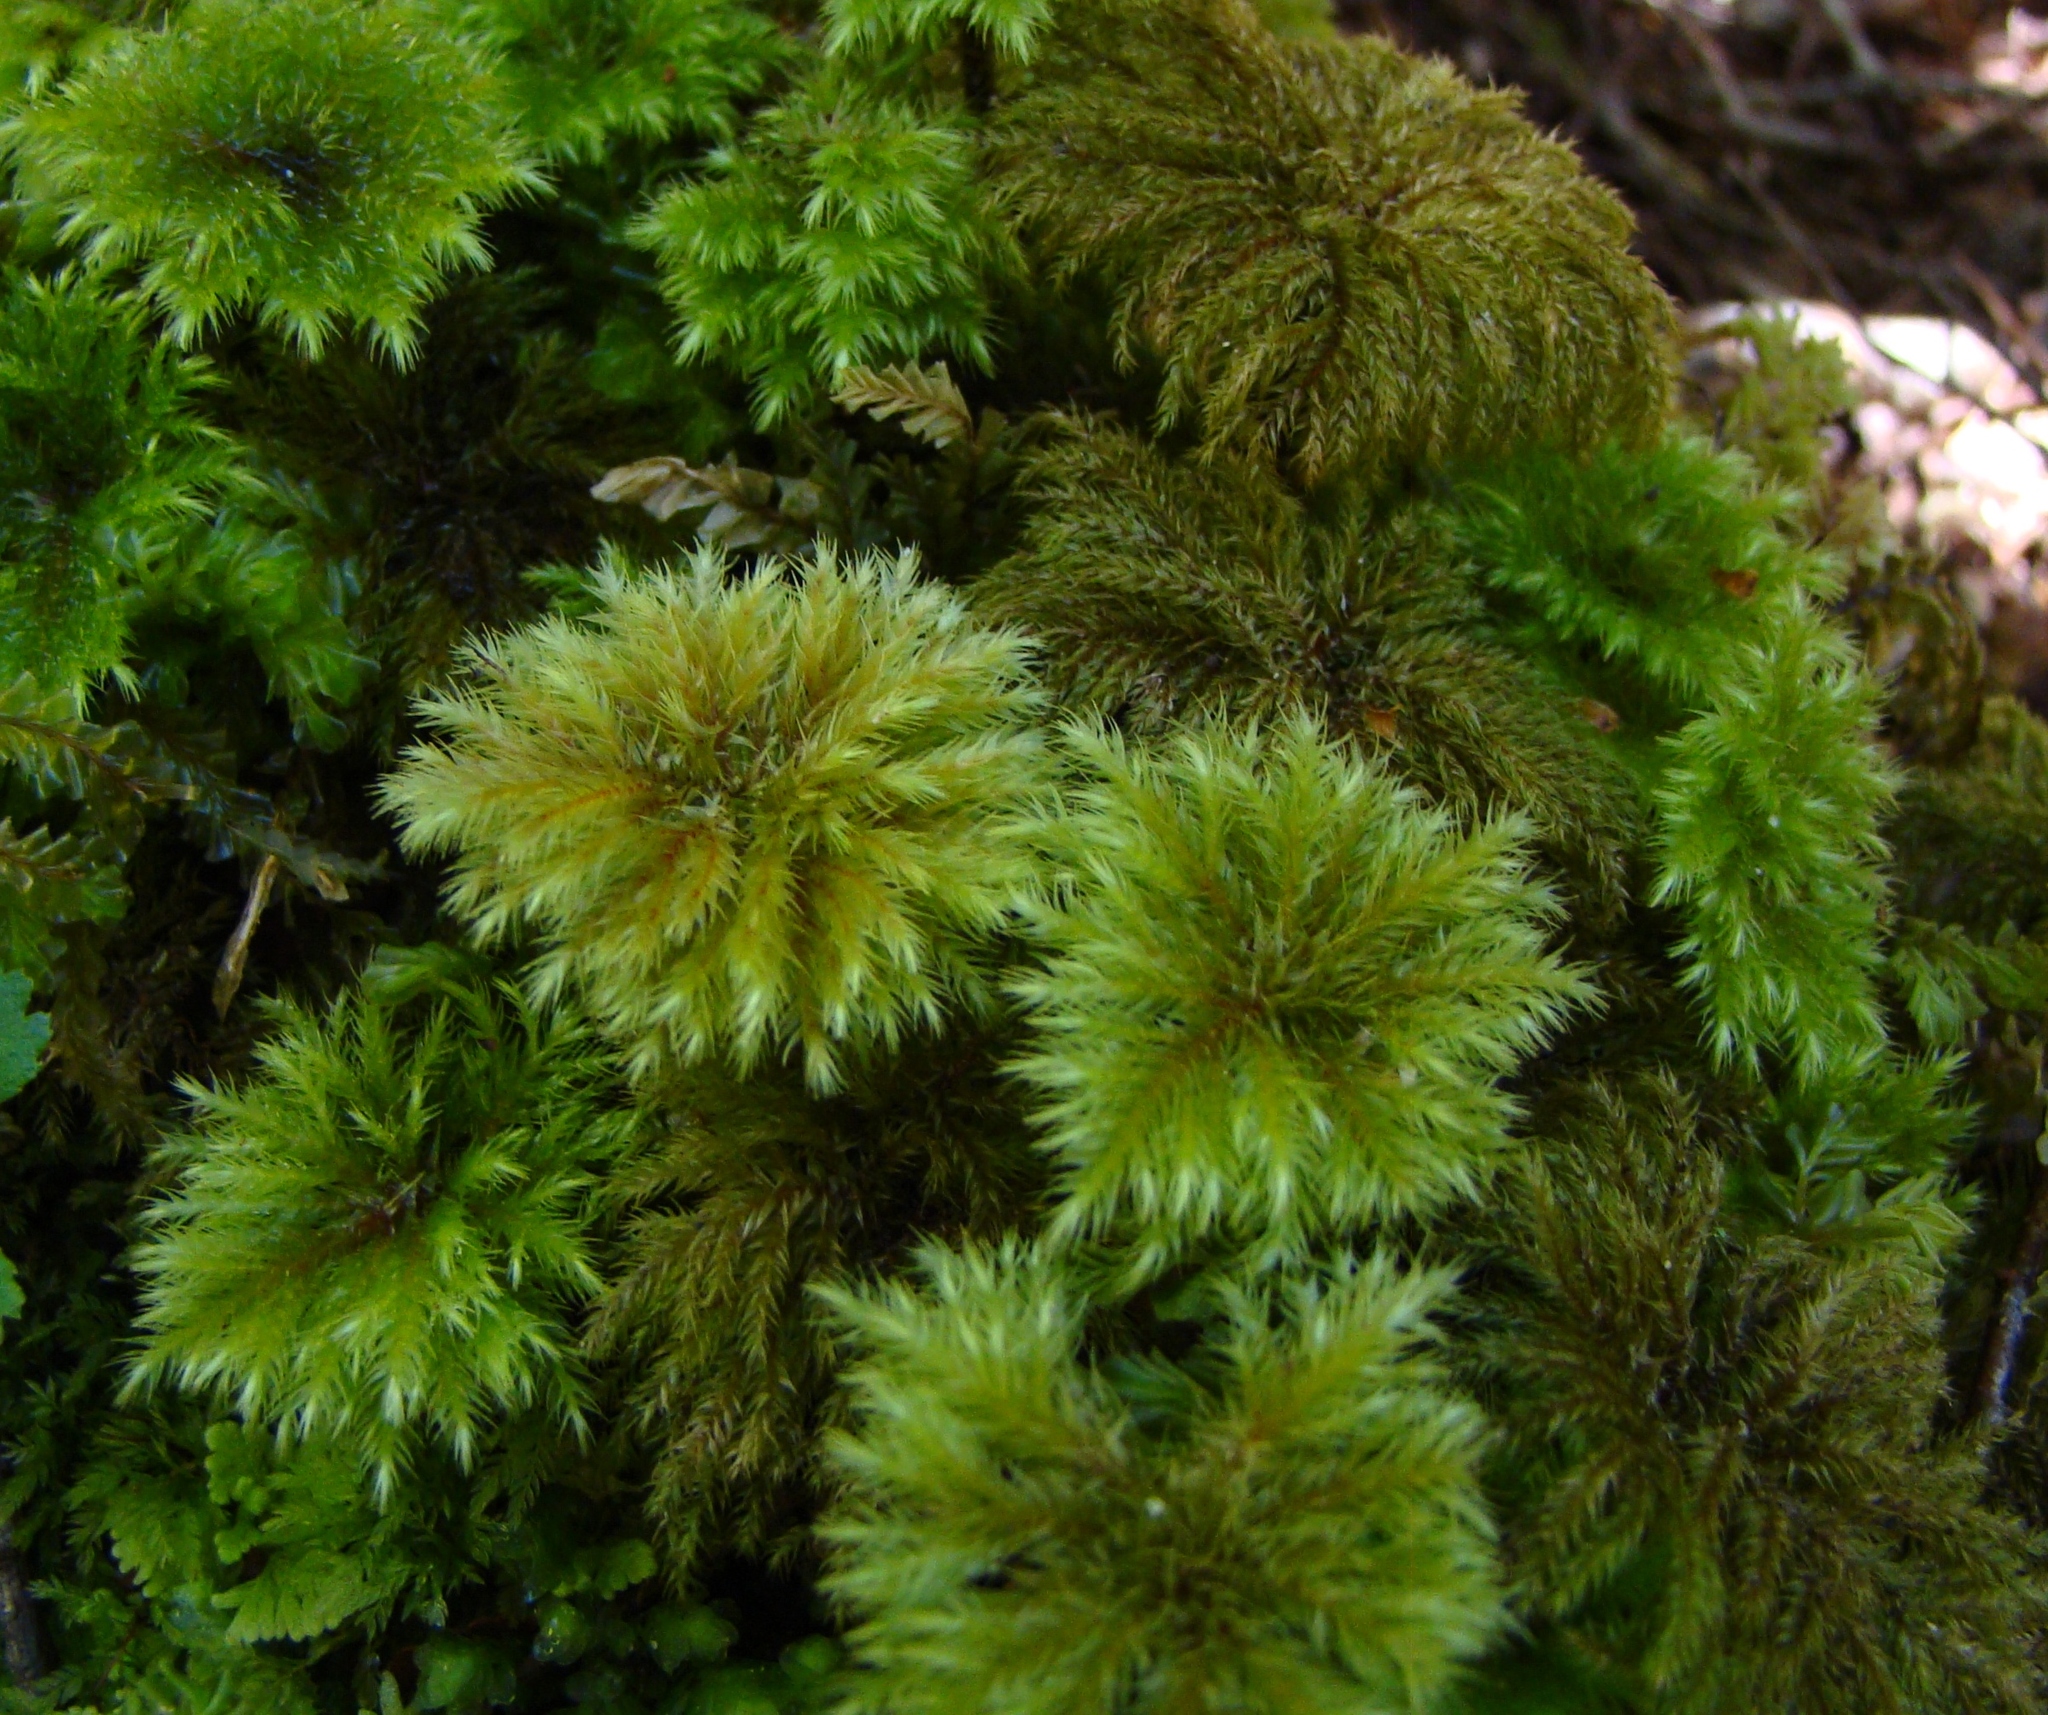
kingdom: Plantae
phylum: Bryophyta
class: Bryopsida
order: Hypnodendrales
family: Spiridentaceae
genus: Hypnodendron
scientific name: Hypnodendron
